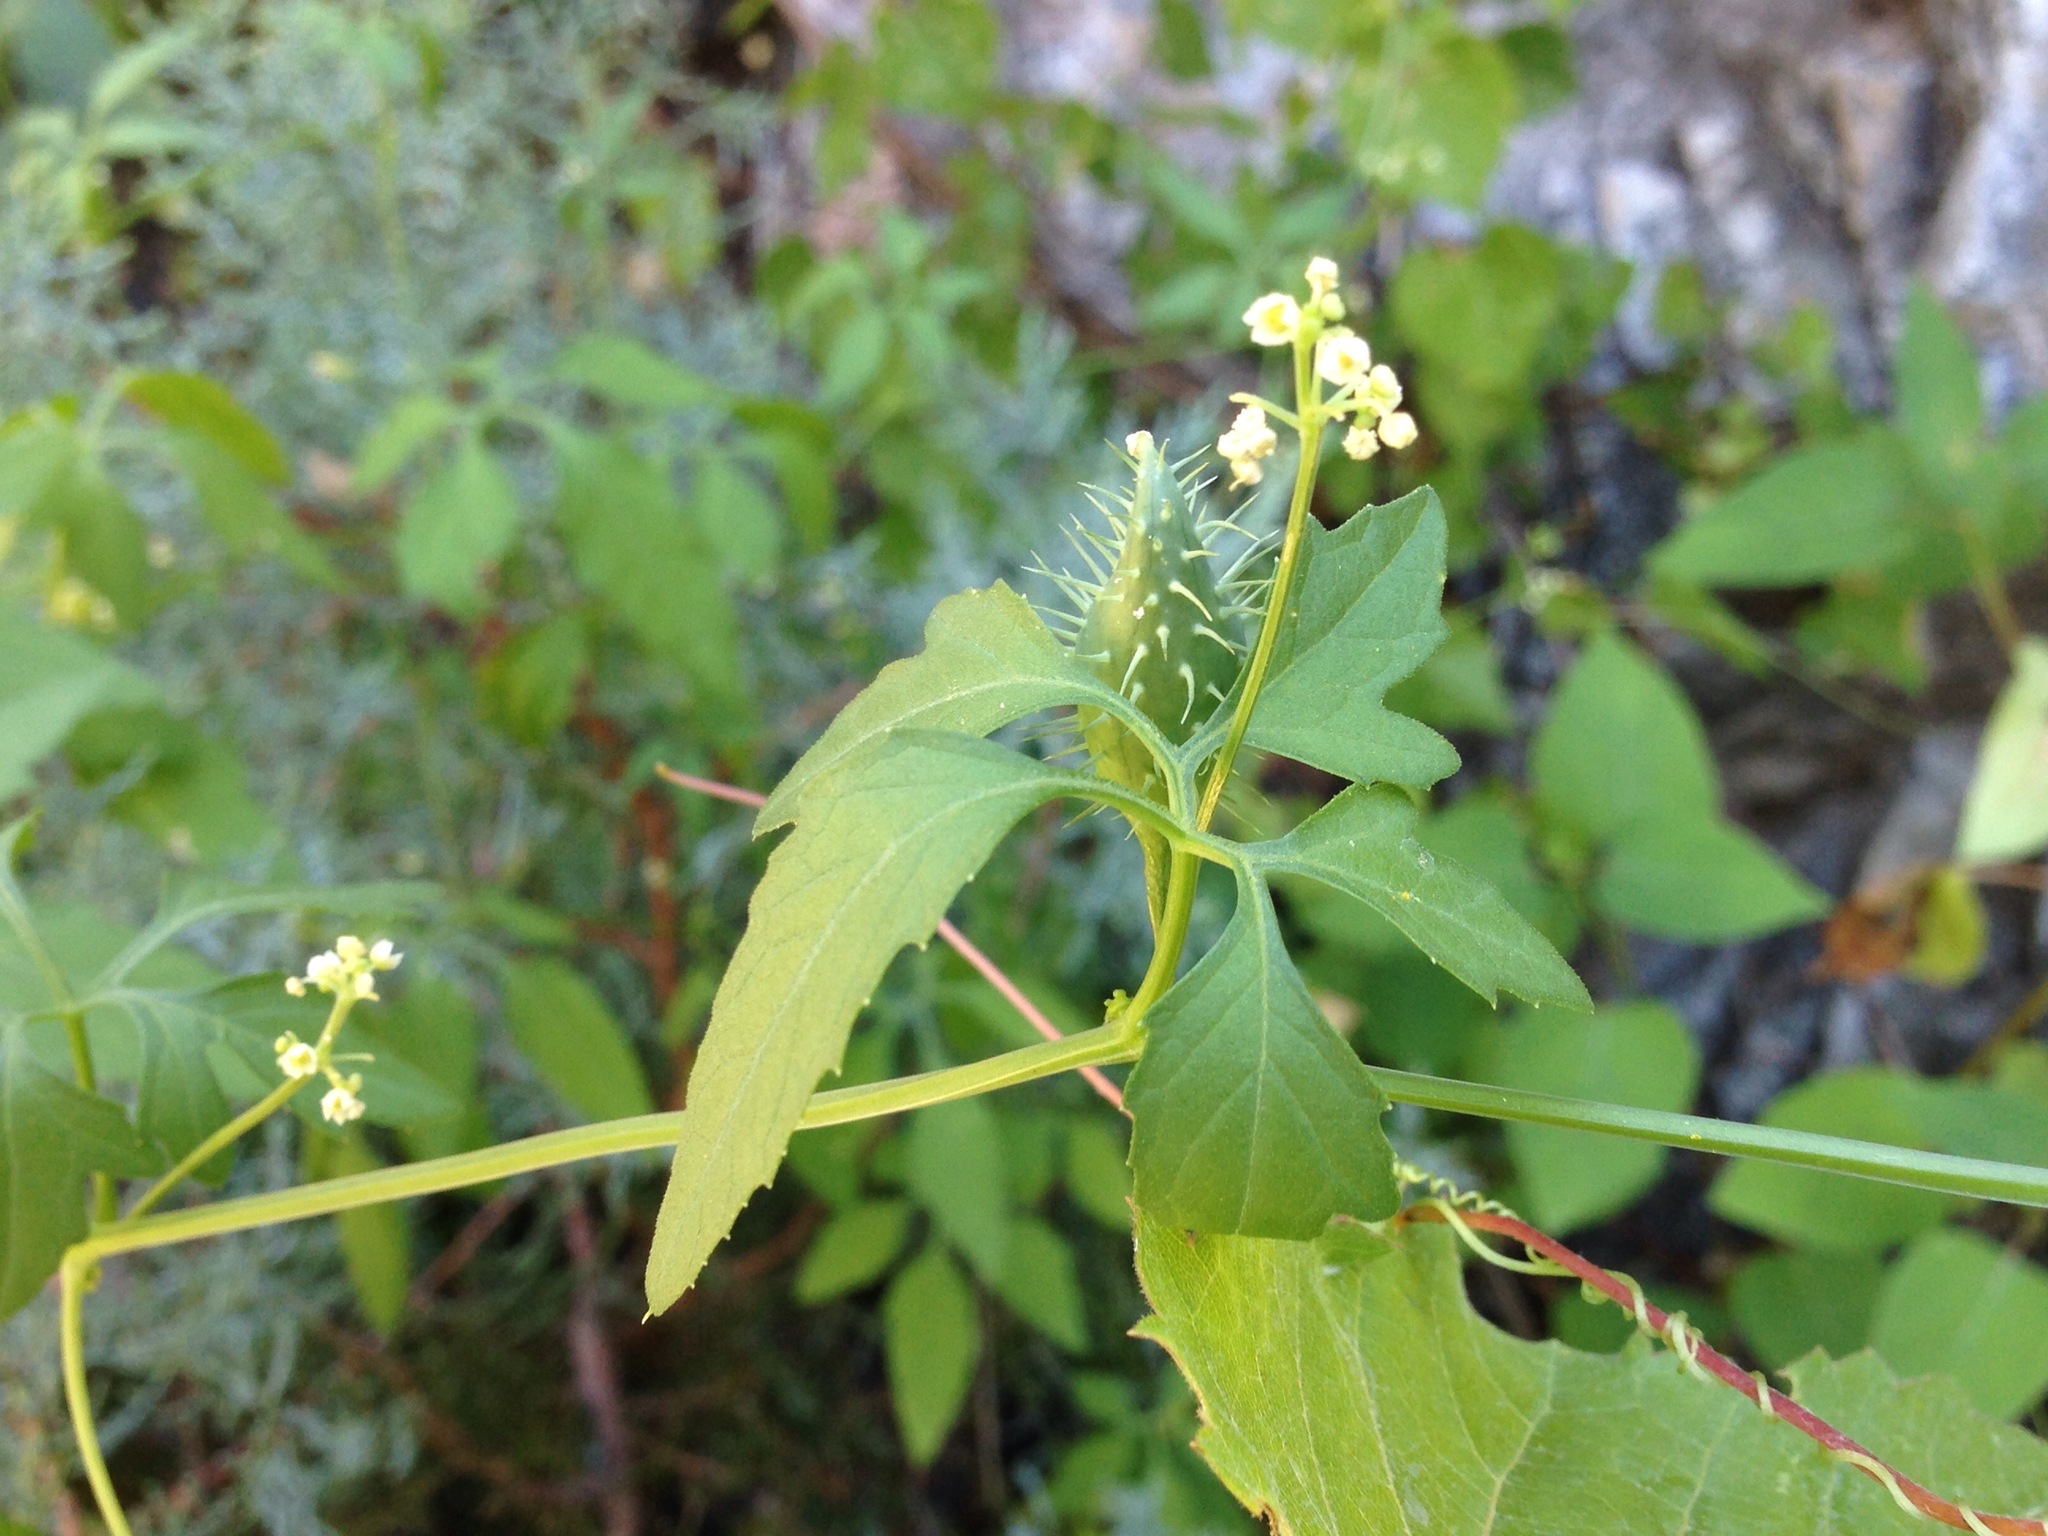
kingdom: Plantae
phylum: Tracheophyta
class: Magnoliopsida
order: Cucurbitales
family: Cucurbitaceae
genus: Cyclanthera
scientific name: Cyclanthera gracillima
